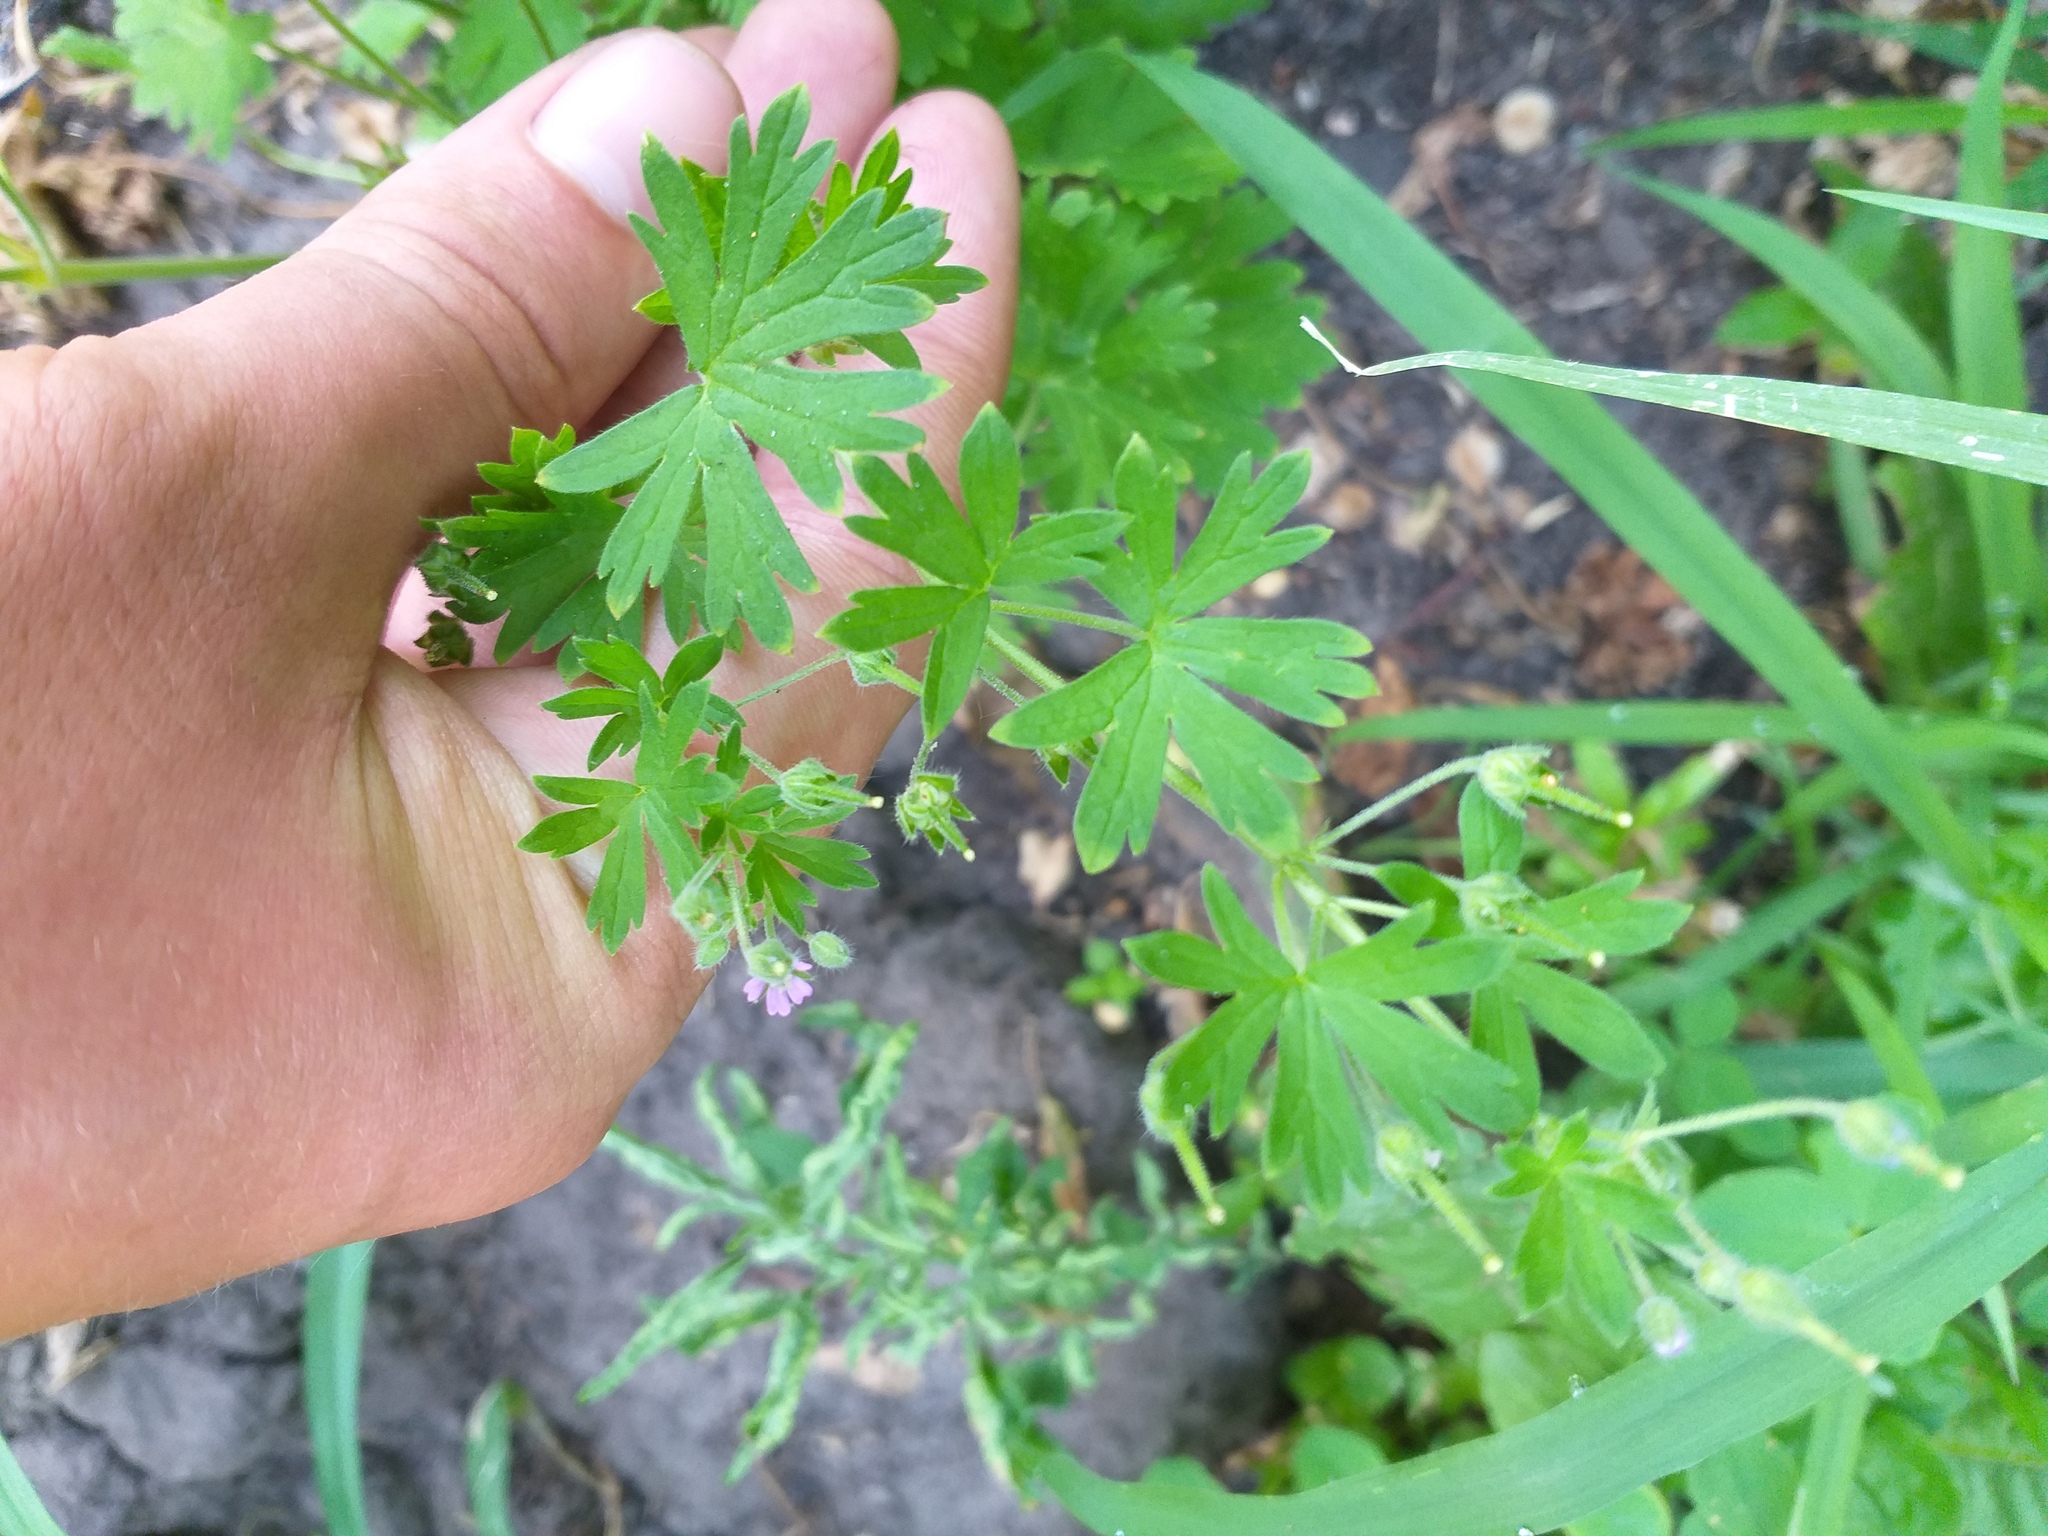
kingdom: Plantae
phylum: Tracheophyta
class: Magnoliopsida
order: Geraniales
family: Geraniaceae
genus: Geranium
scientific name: Geranium pusillum
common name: Small geranium
